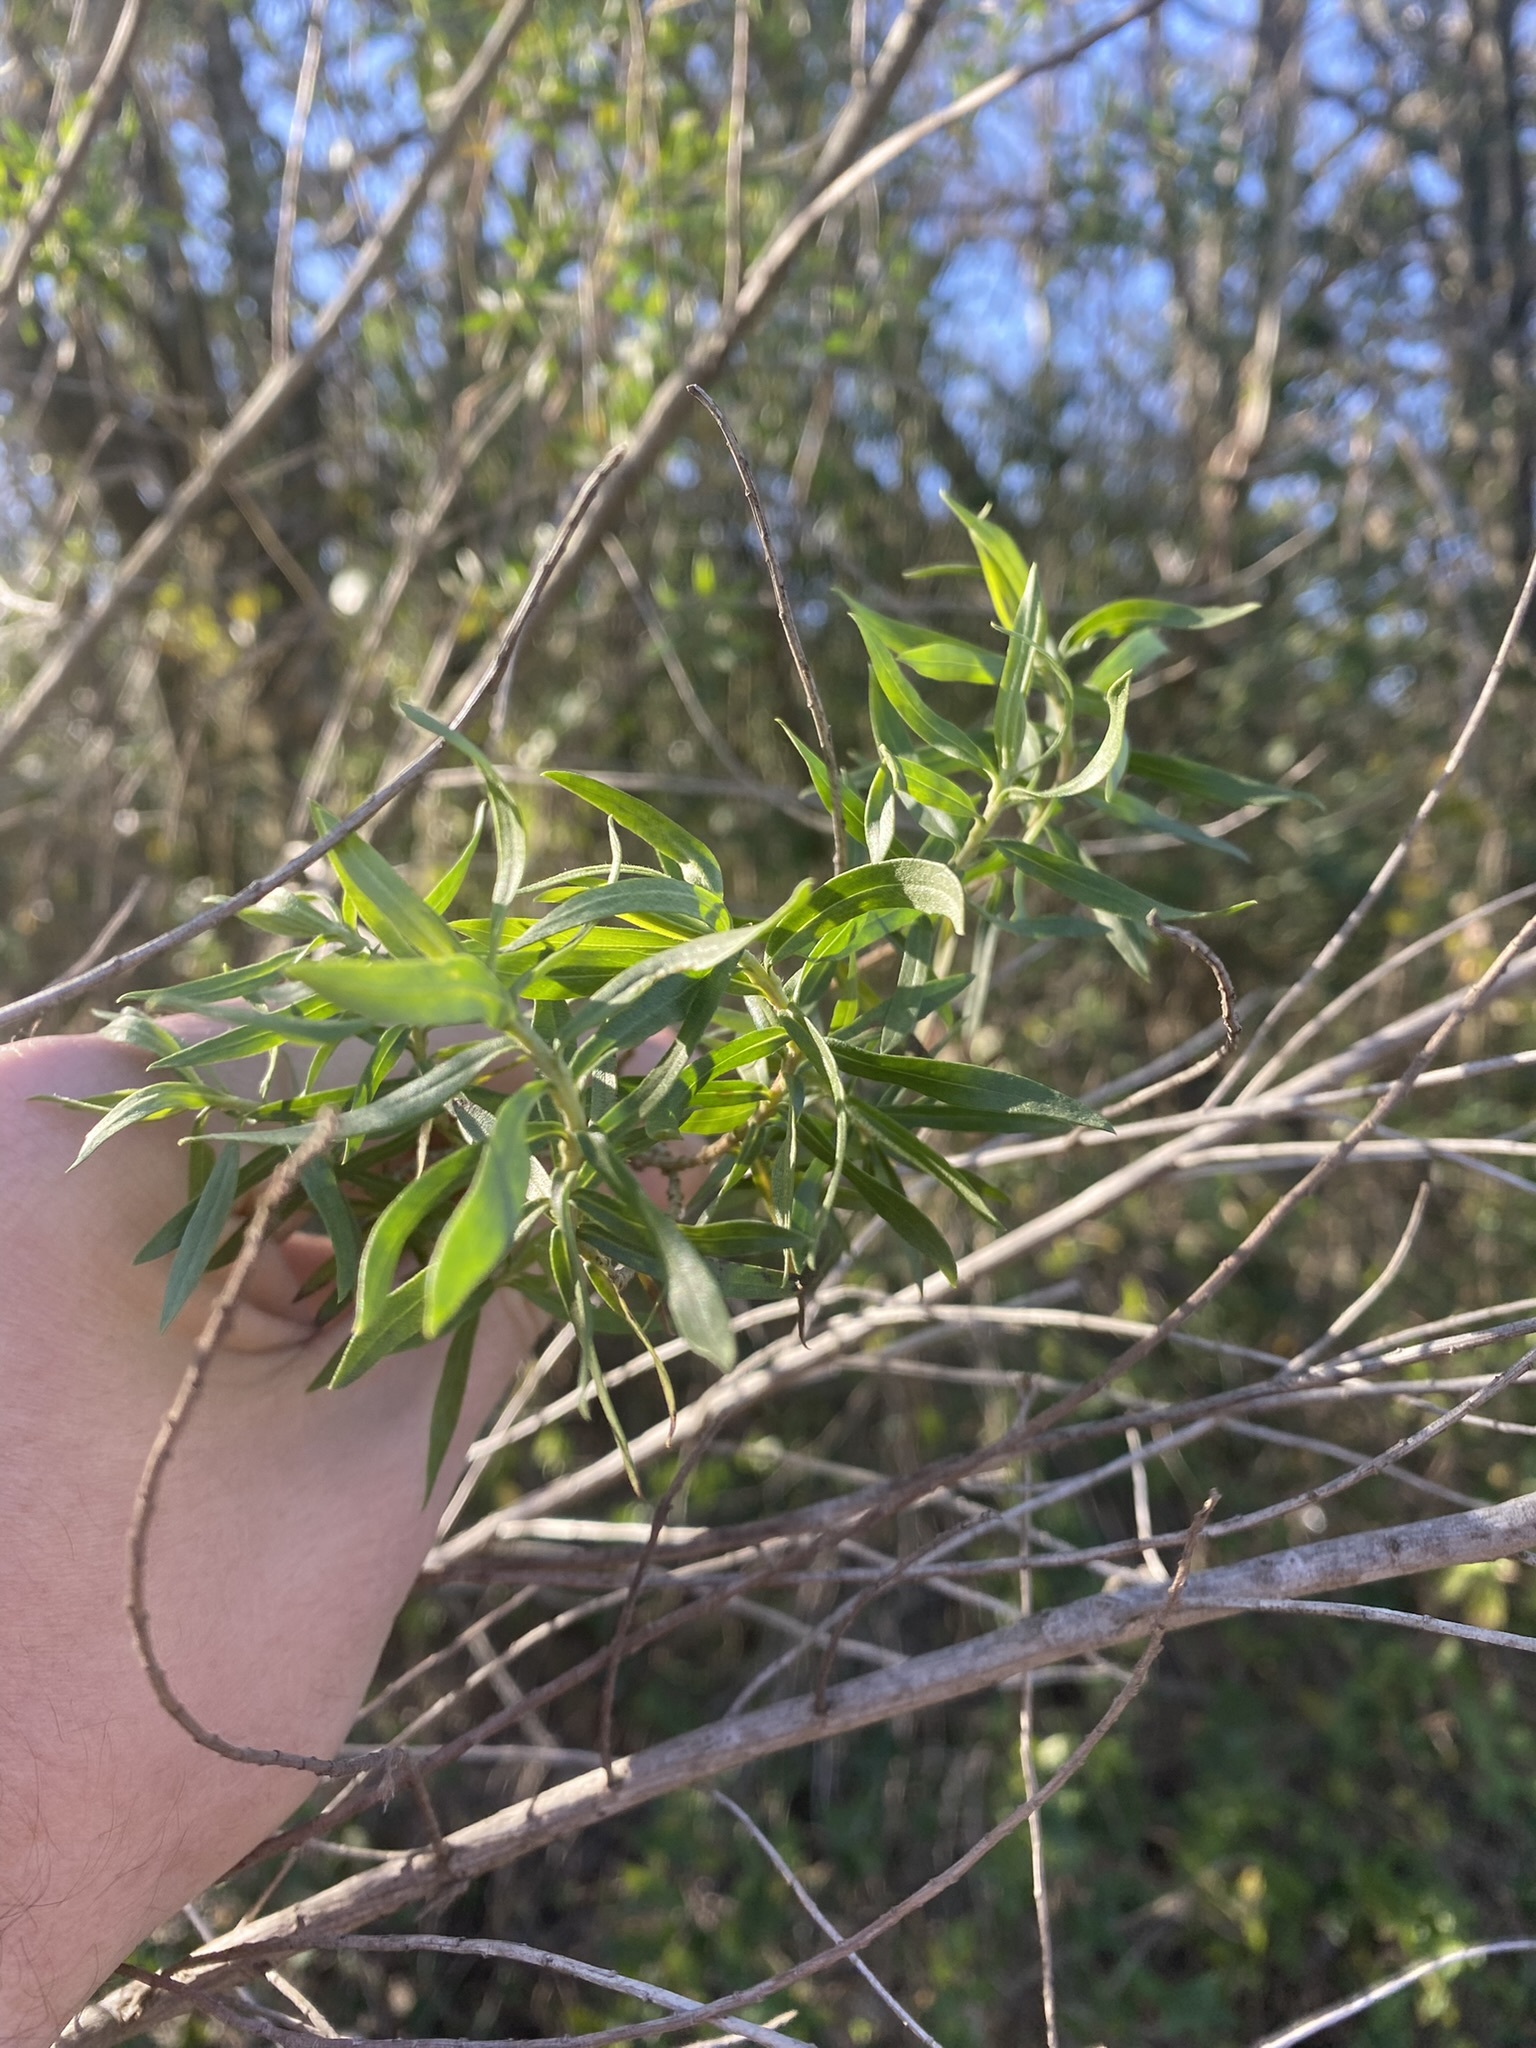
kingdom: Plantae
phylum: Tracheophyta
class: Magnoliopsida
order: Asterales
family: Asteraceae
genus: Baccharis
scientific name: Baccharis dracunculifolia
